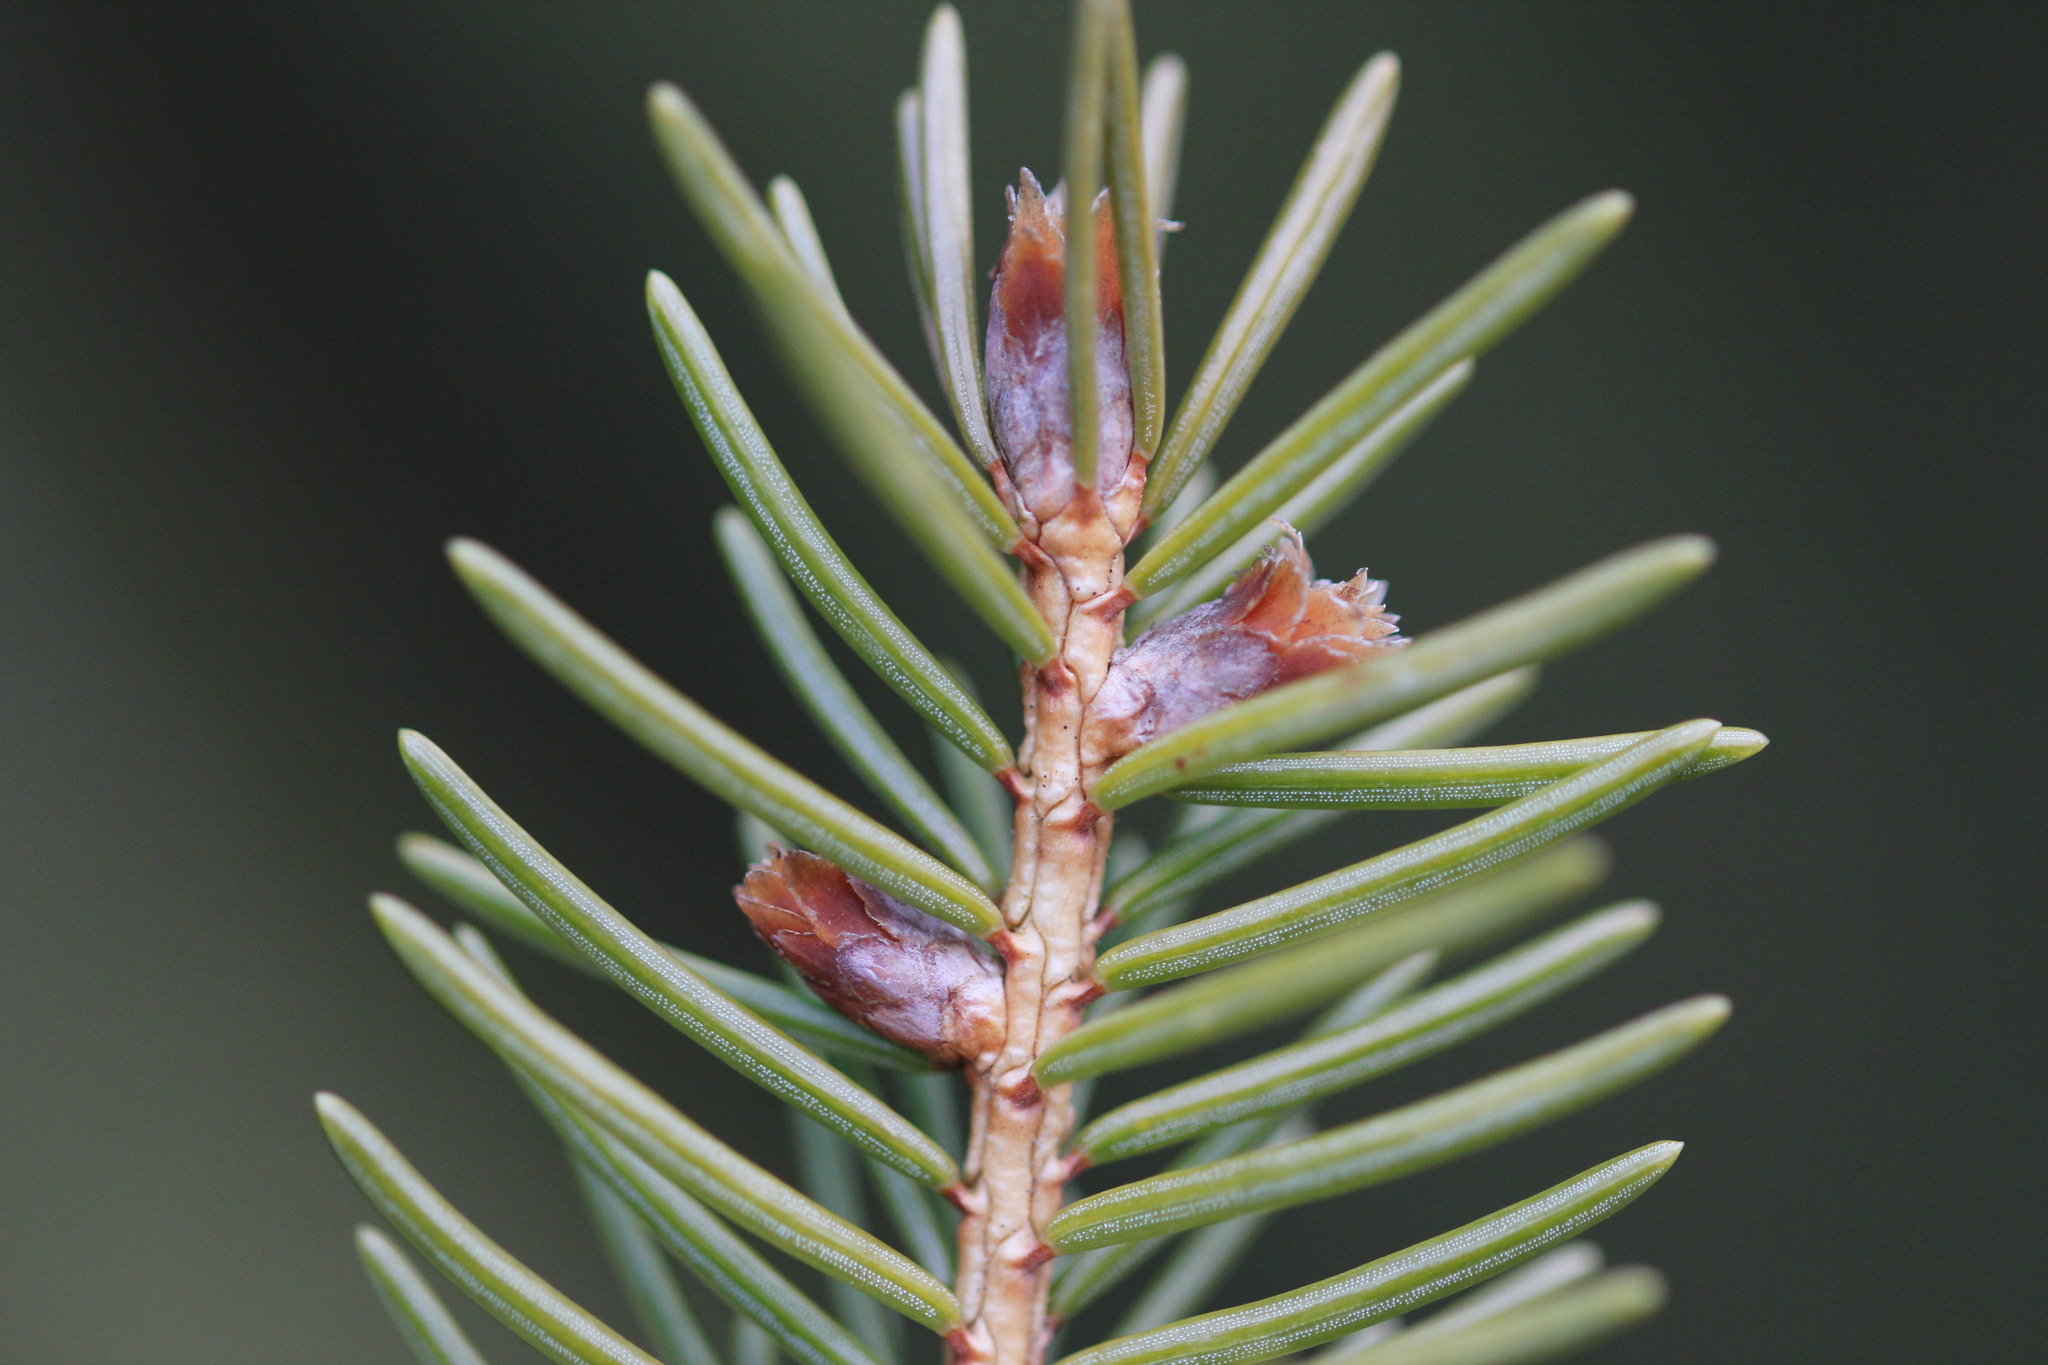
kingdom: Plantae
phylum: Tracheophyta
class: Pinopsida
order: Pinales
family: Pinaceae
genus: Picea
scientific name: Picea abies
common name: Norway spruce
